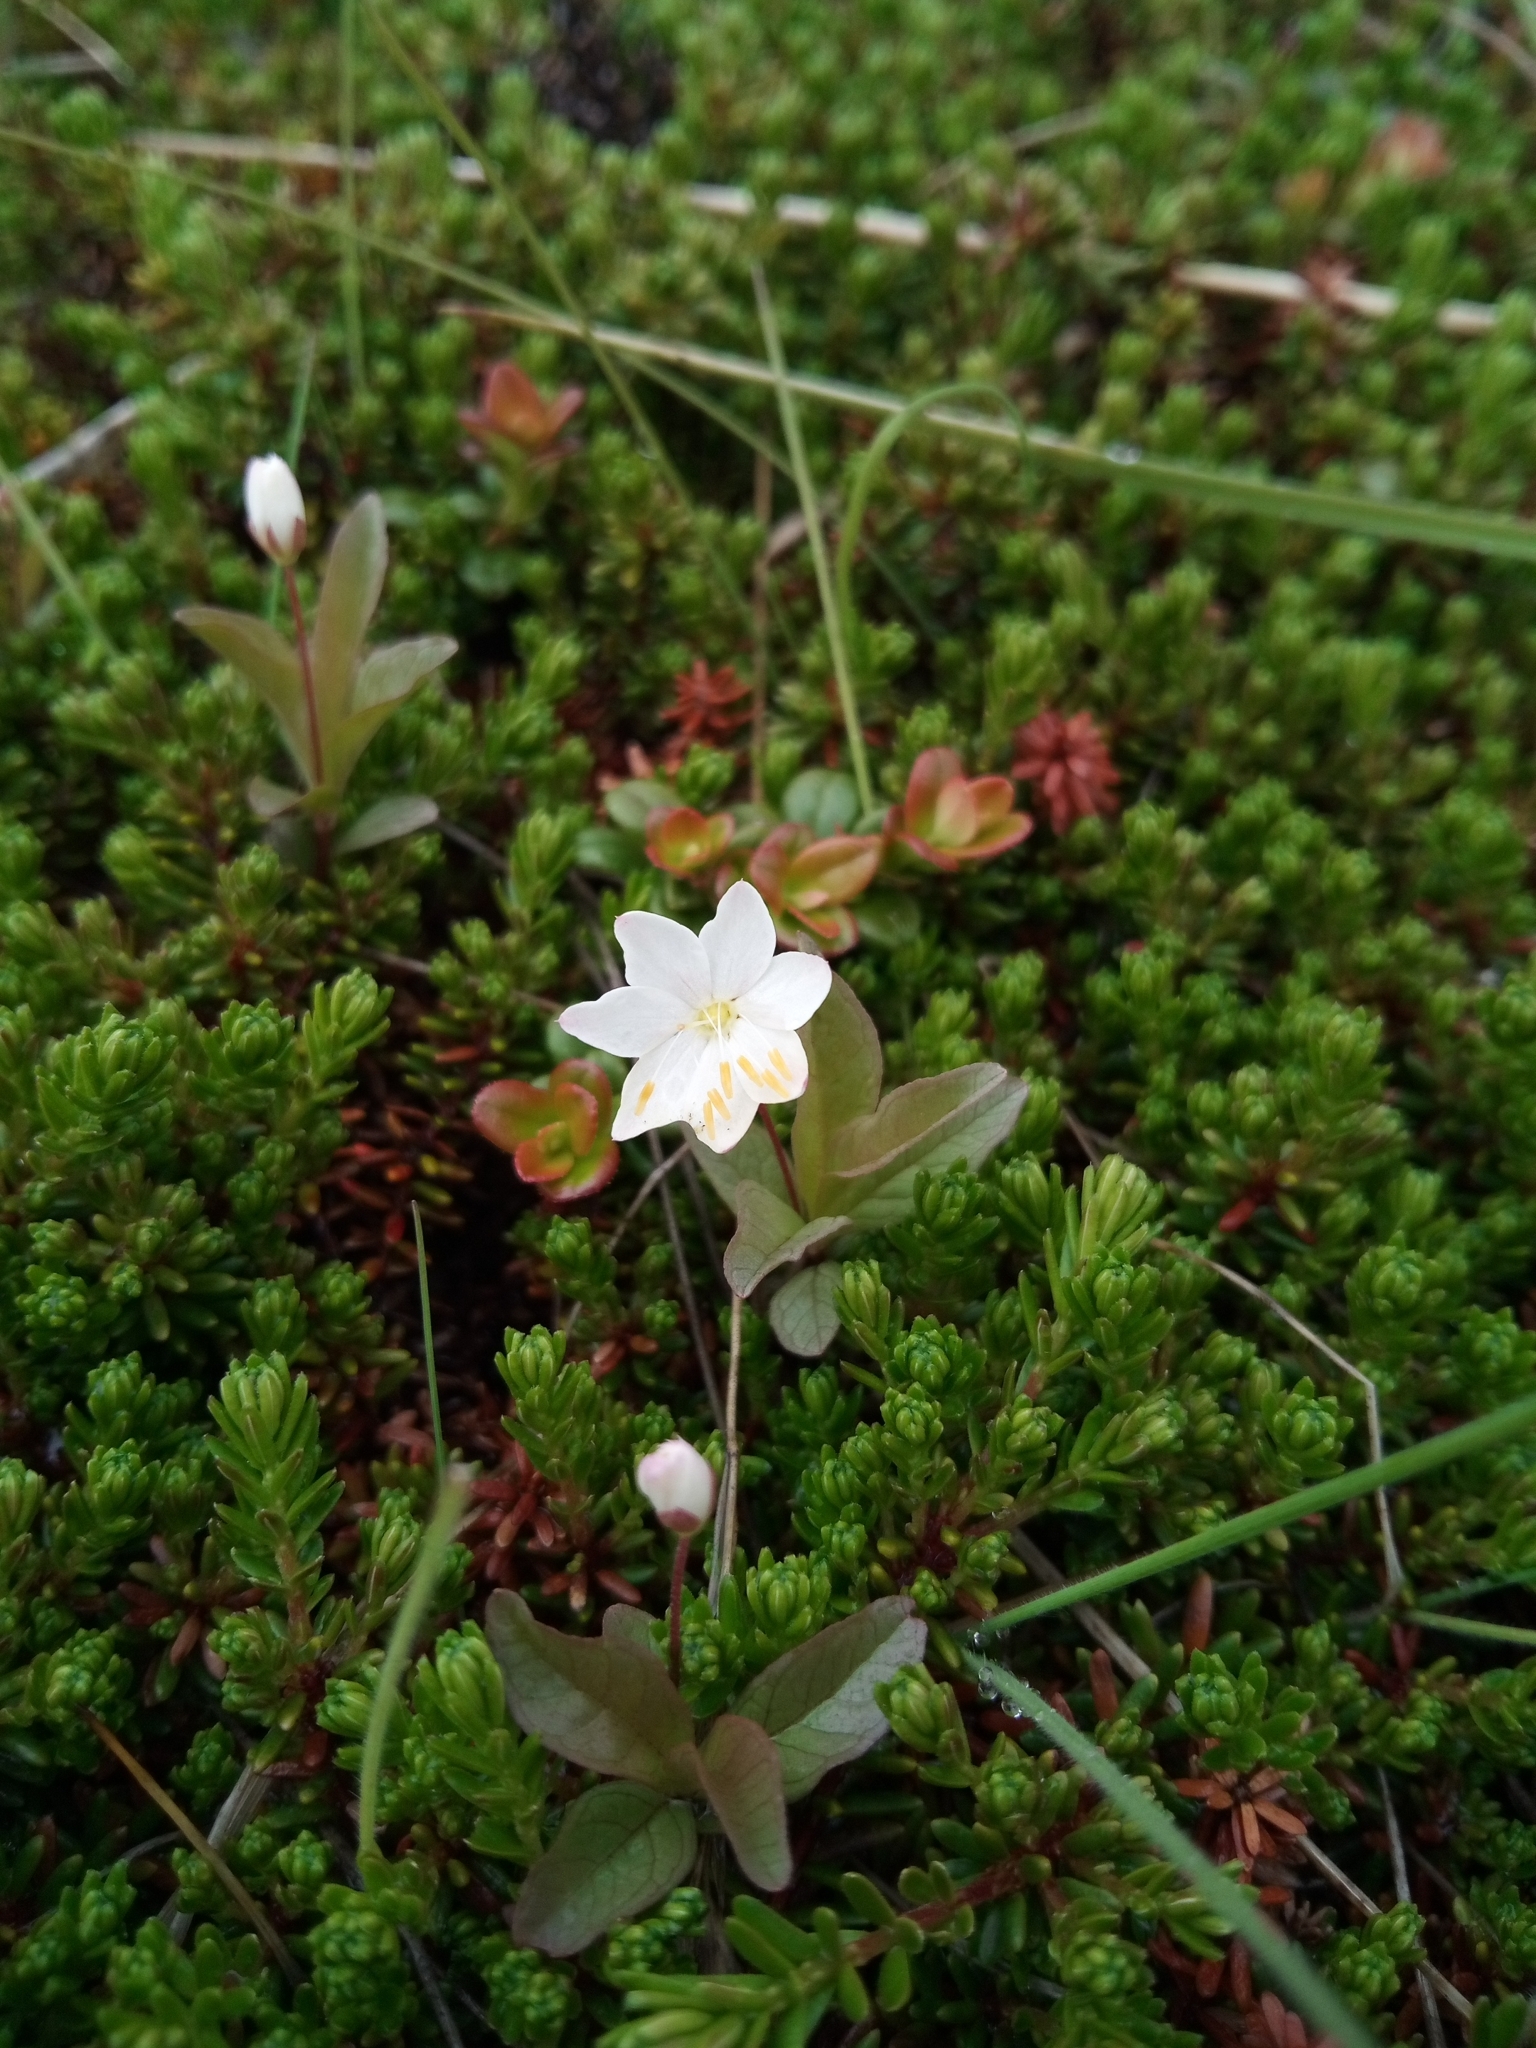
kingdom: Plantae
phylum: Tracheophyta
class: Magnoliopsida
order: Ericales
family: Primulaceae
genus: Lysimachia
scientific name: Lysimachia europaea
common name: Arctic starflower
